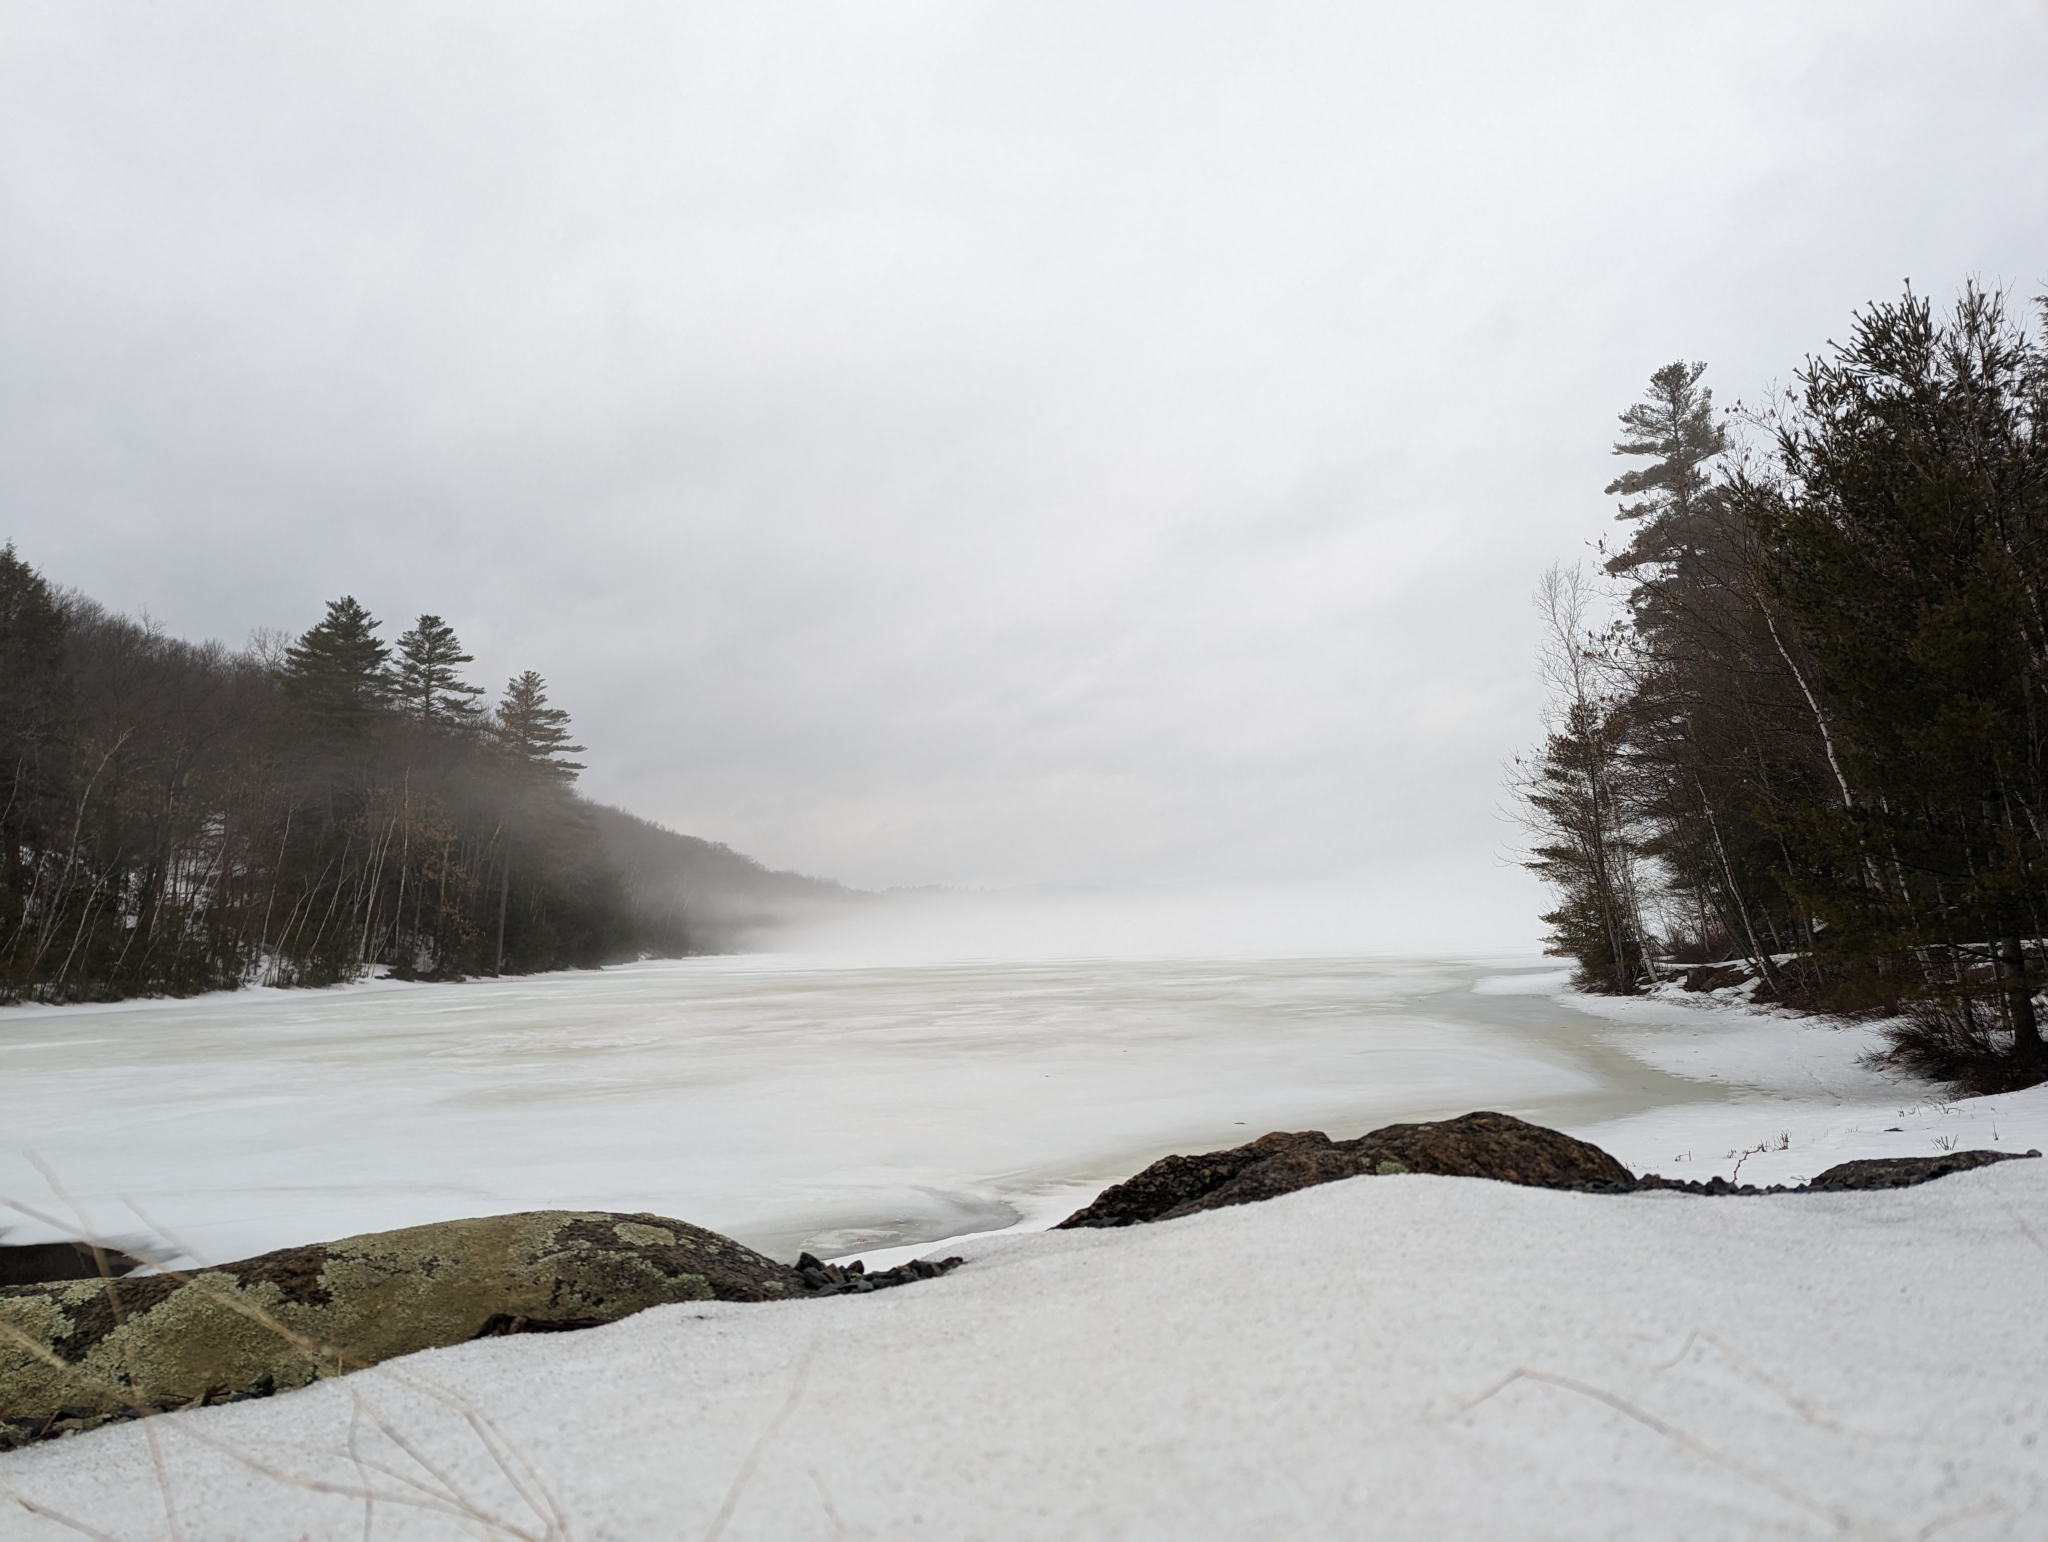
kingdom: Plantae
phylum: Tracheophyta
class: Pinopsida
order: Pinales
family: Pinaceae
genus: Pinus
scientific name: Pinus strobus
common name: Weymouth pine
